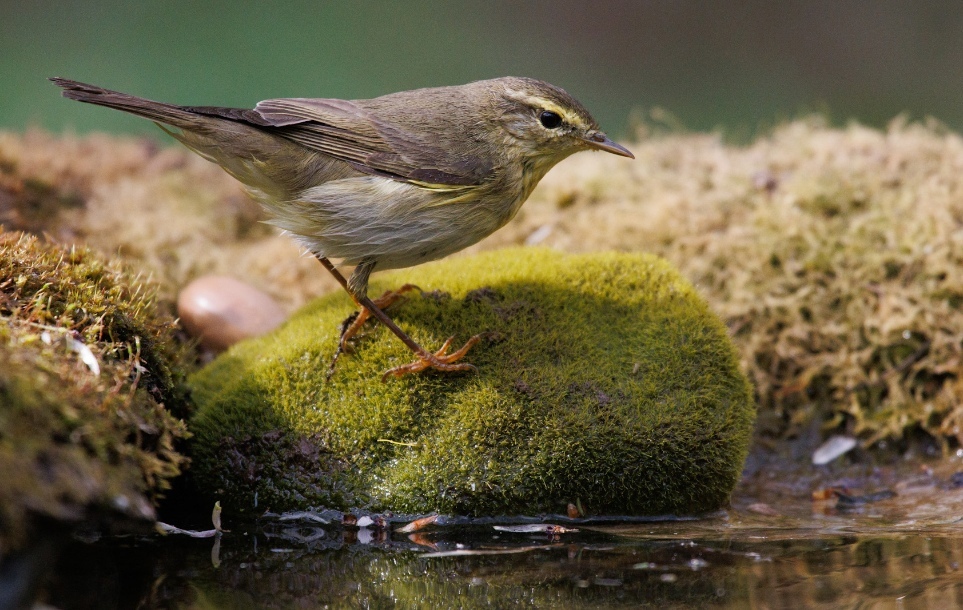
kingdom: Animalia
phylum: Chordata
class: Aves
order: Passeriformes
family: Phylloscopidae
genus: Phylloscopus
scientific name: Phylloscopus trochilus
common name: Willow warbler
